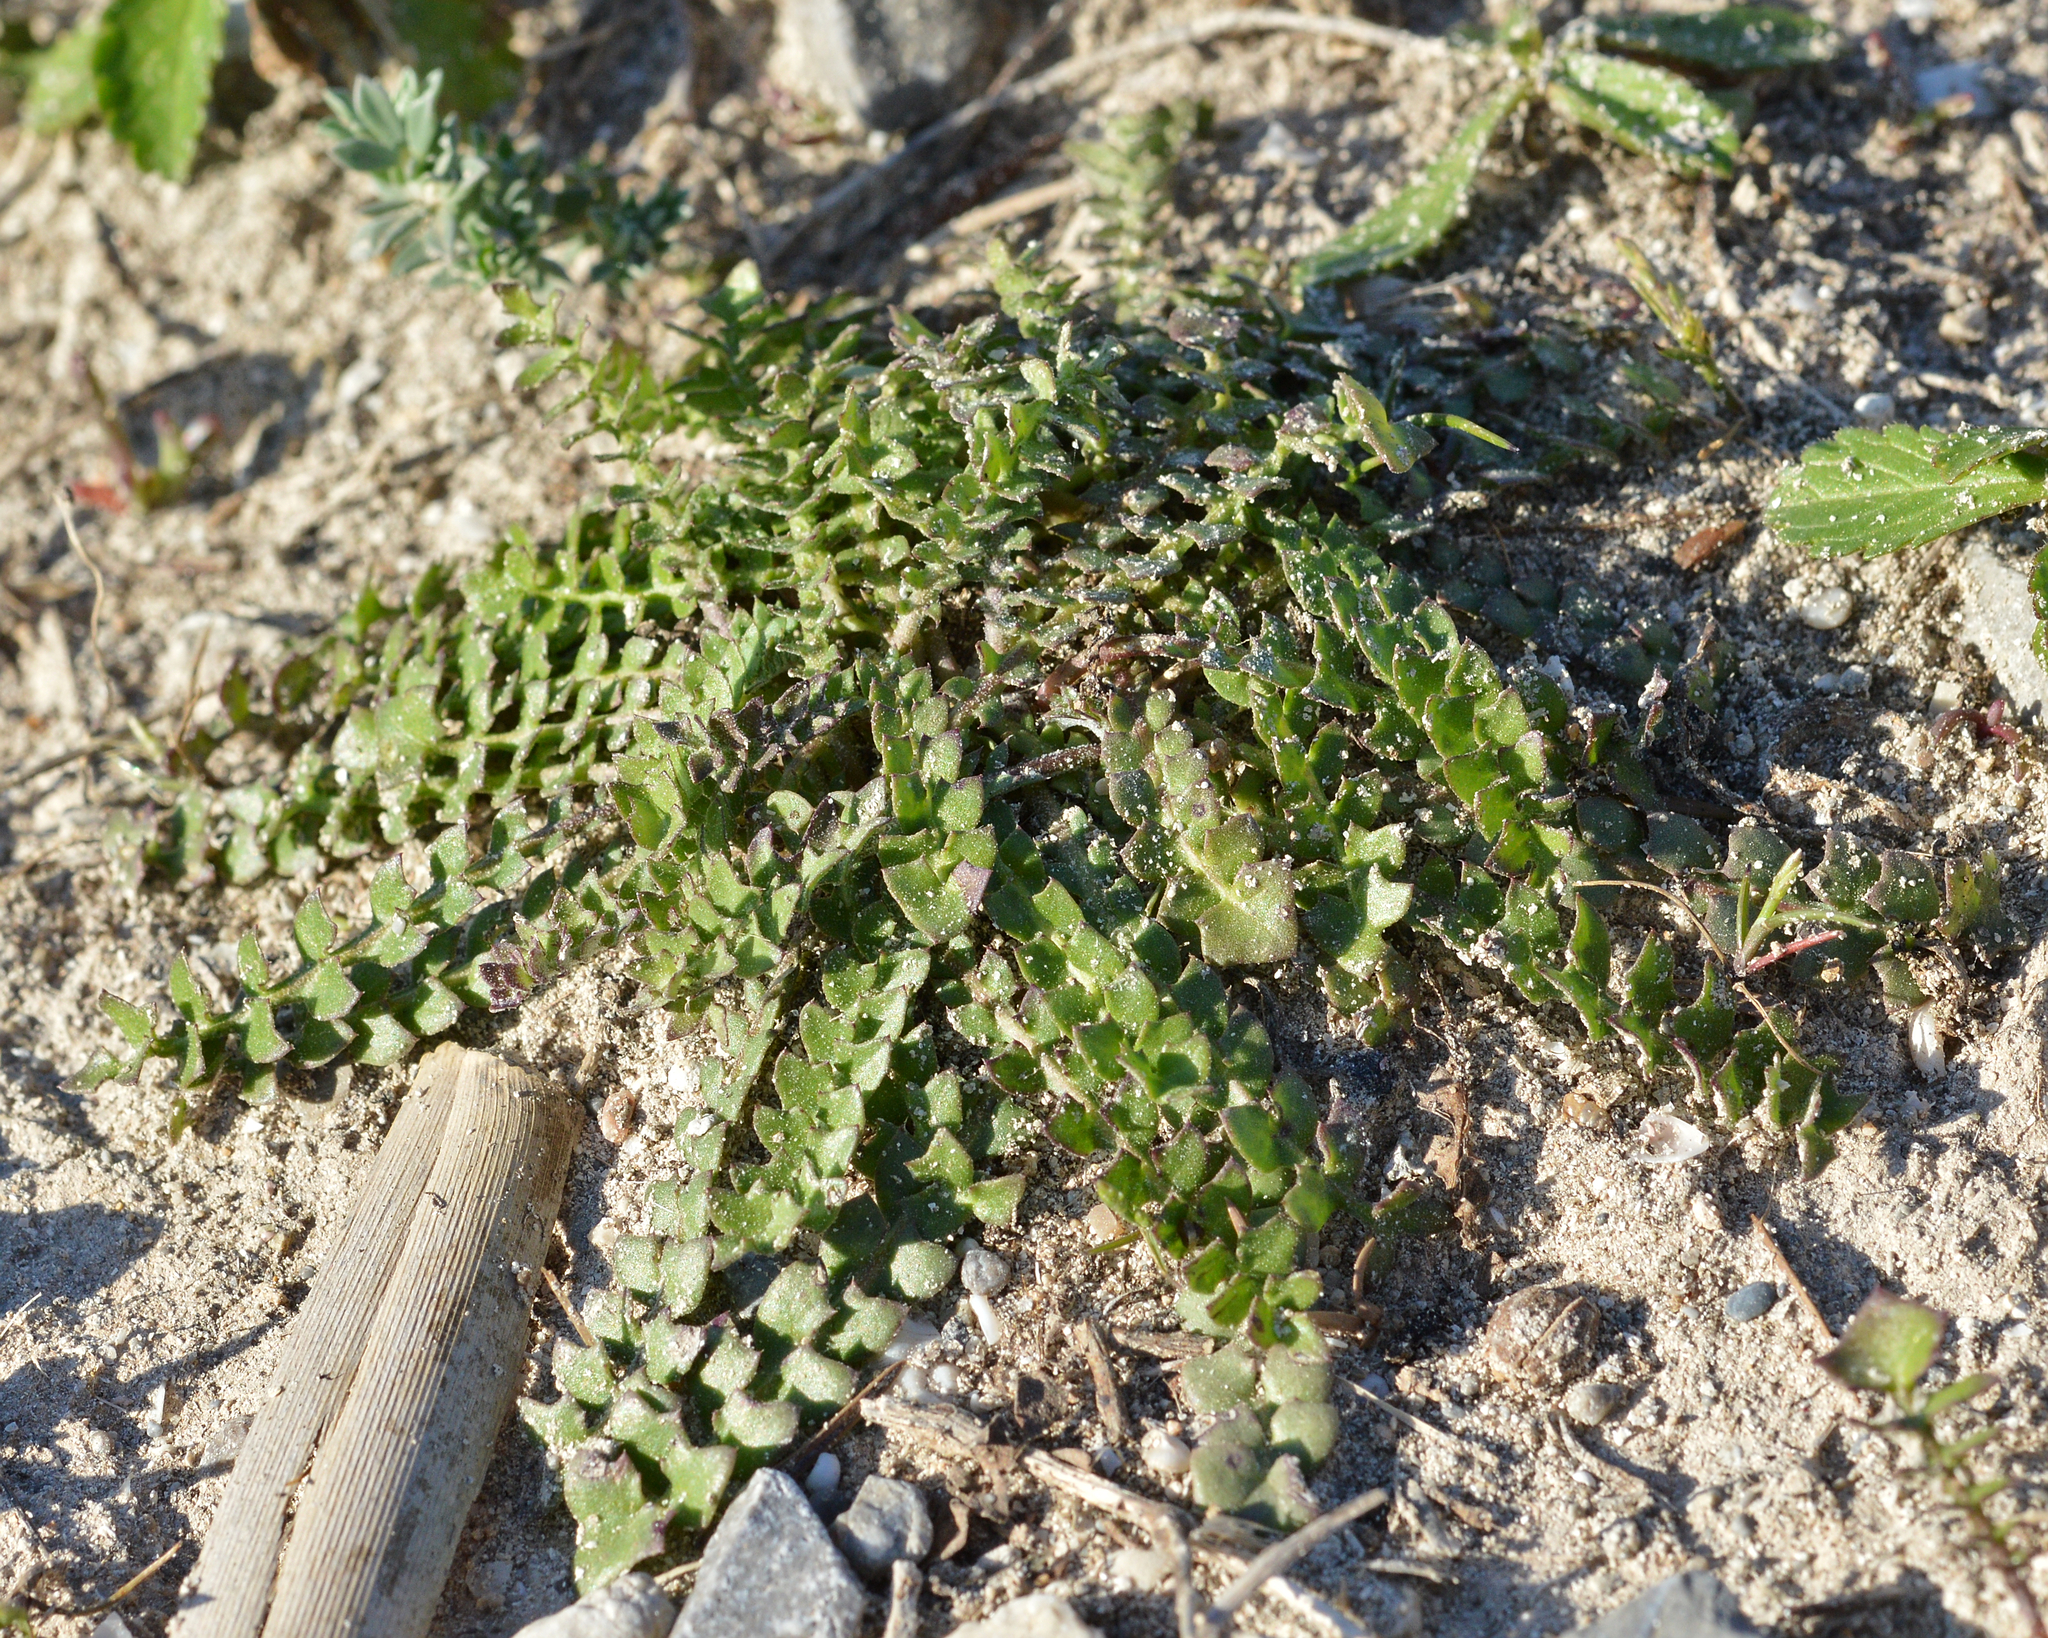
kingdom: Plantae
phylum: Tracheophyta
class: Magnoliopsida
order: Asterales
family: Asteraceae
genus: Hyoseris
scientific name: Hyoseris radiata
